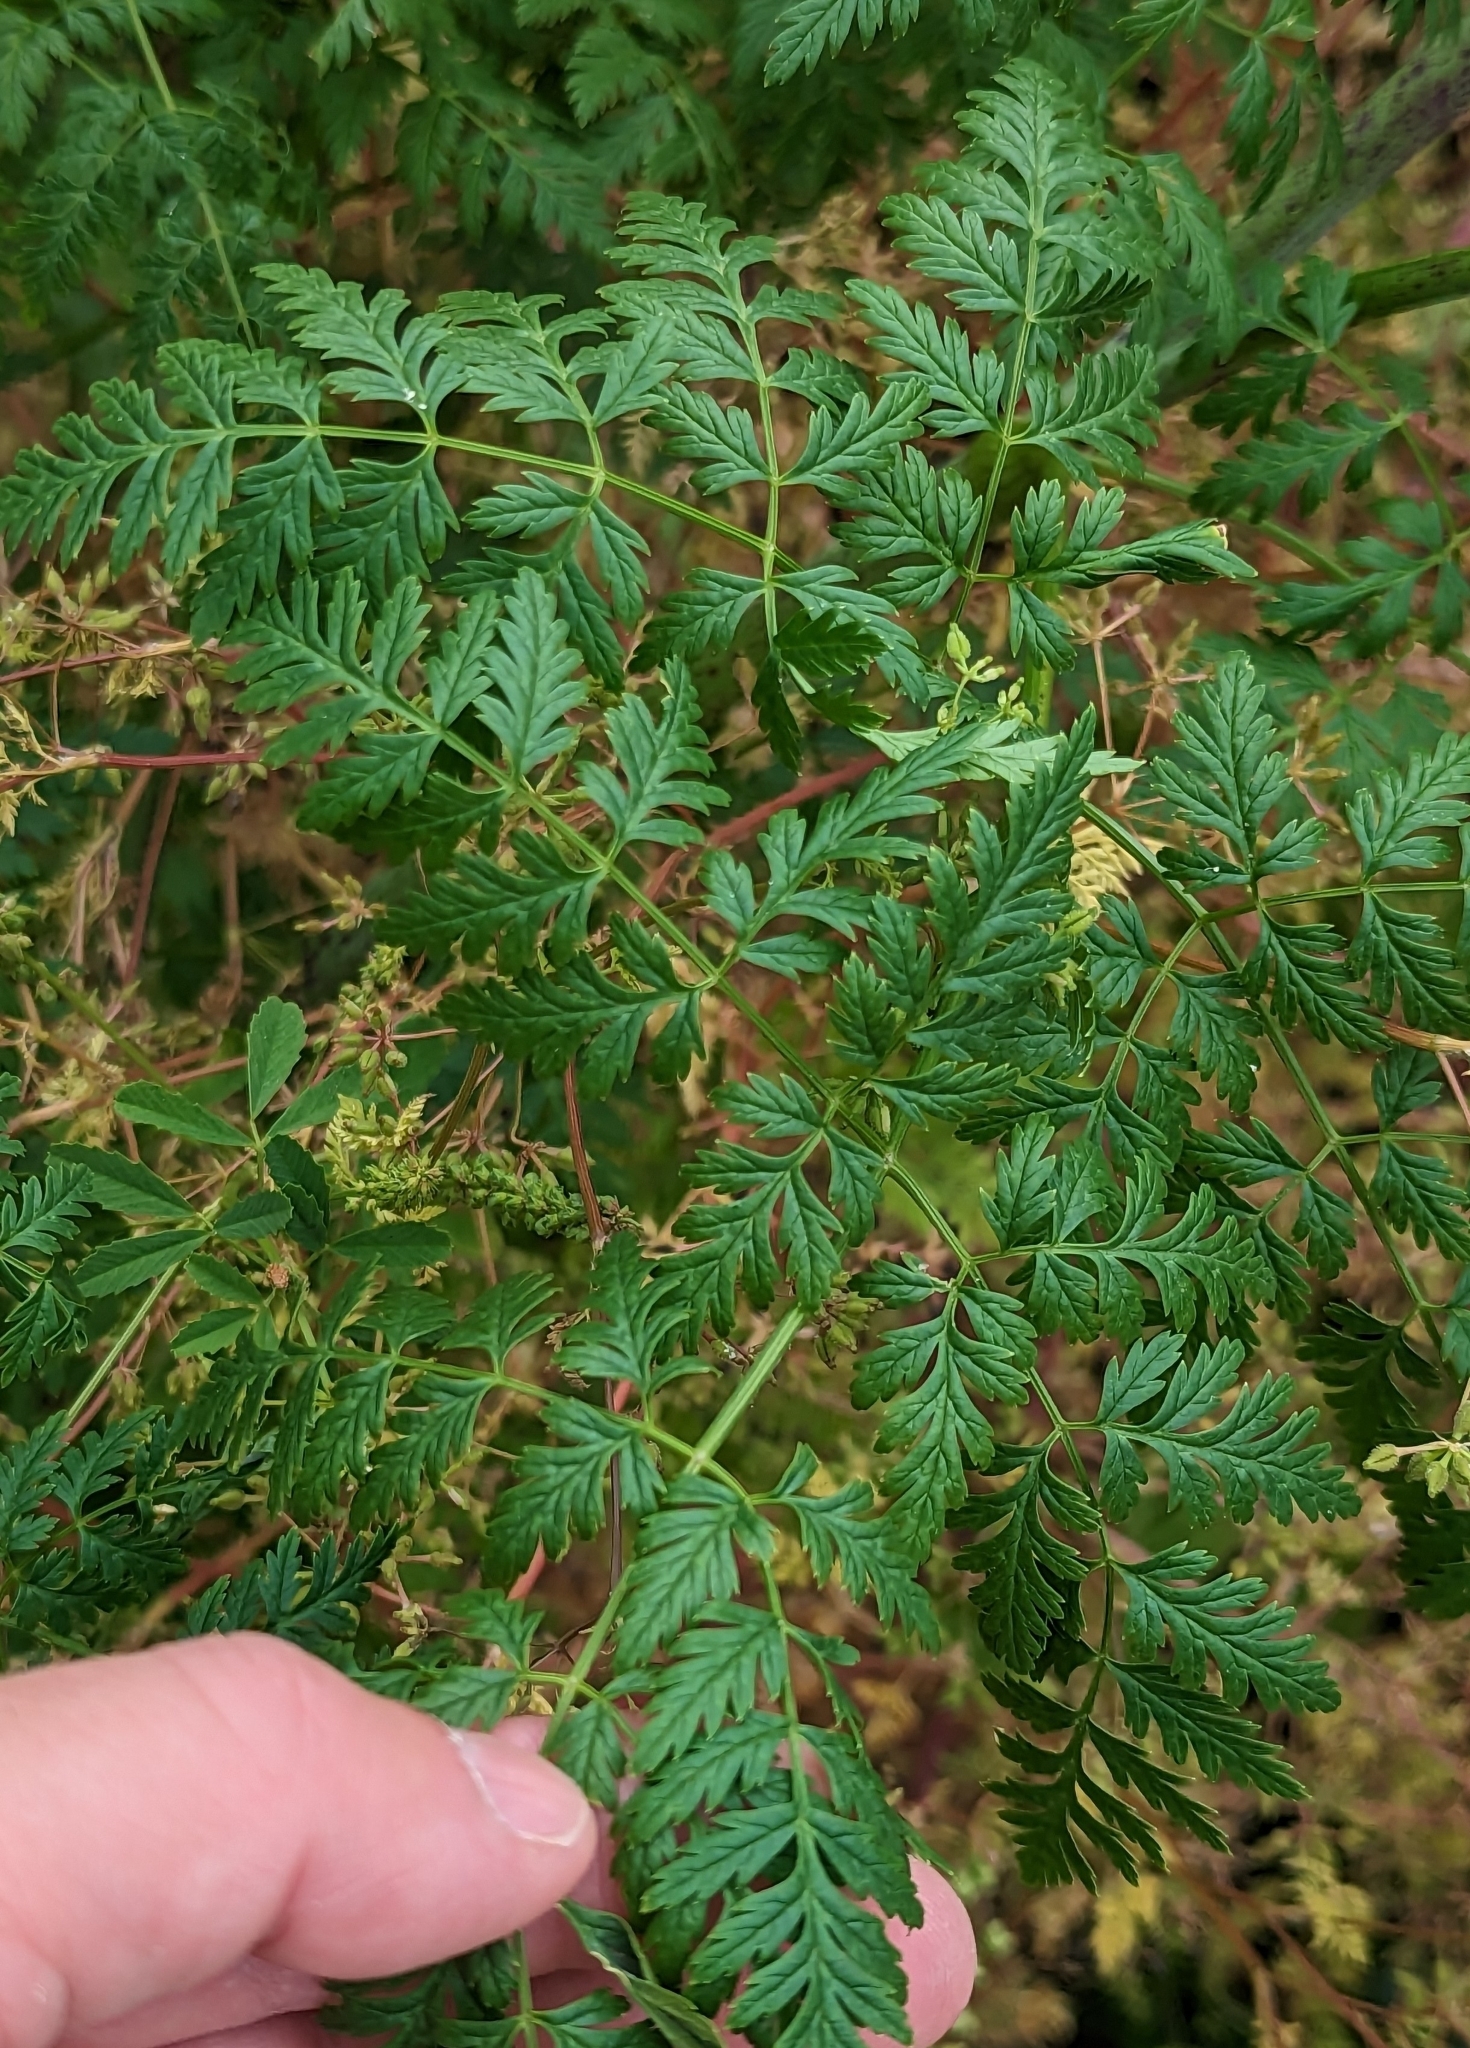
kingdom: Plantae
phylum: Tracheophyta
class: Magnoliopsida
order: Apiales
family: Apiaceae
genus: Conium
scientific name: Conium maculatum
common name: Hemlock
